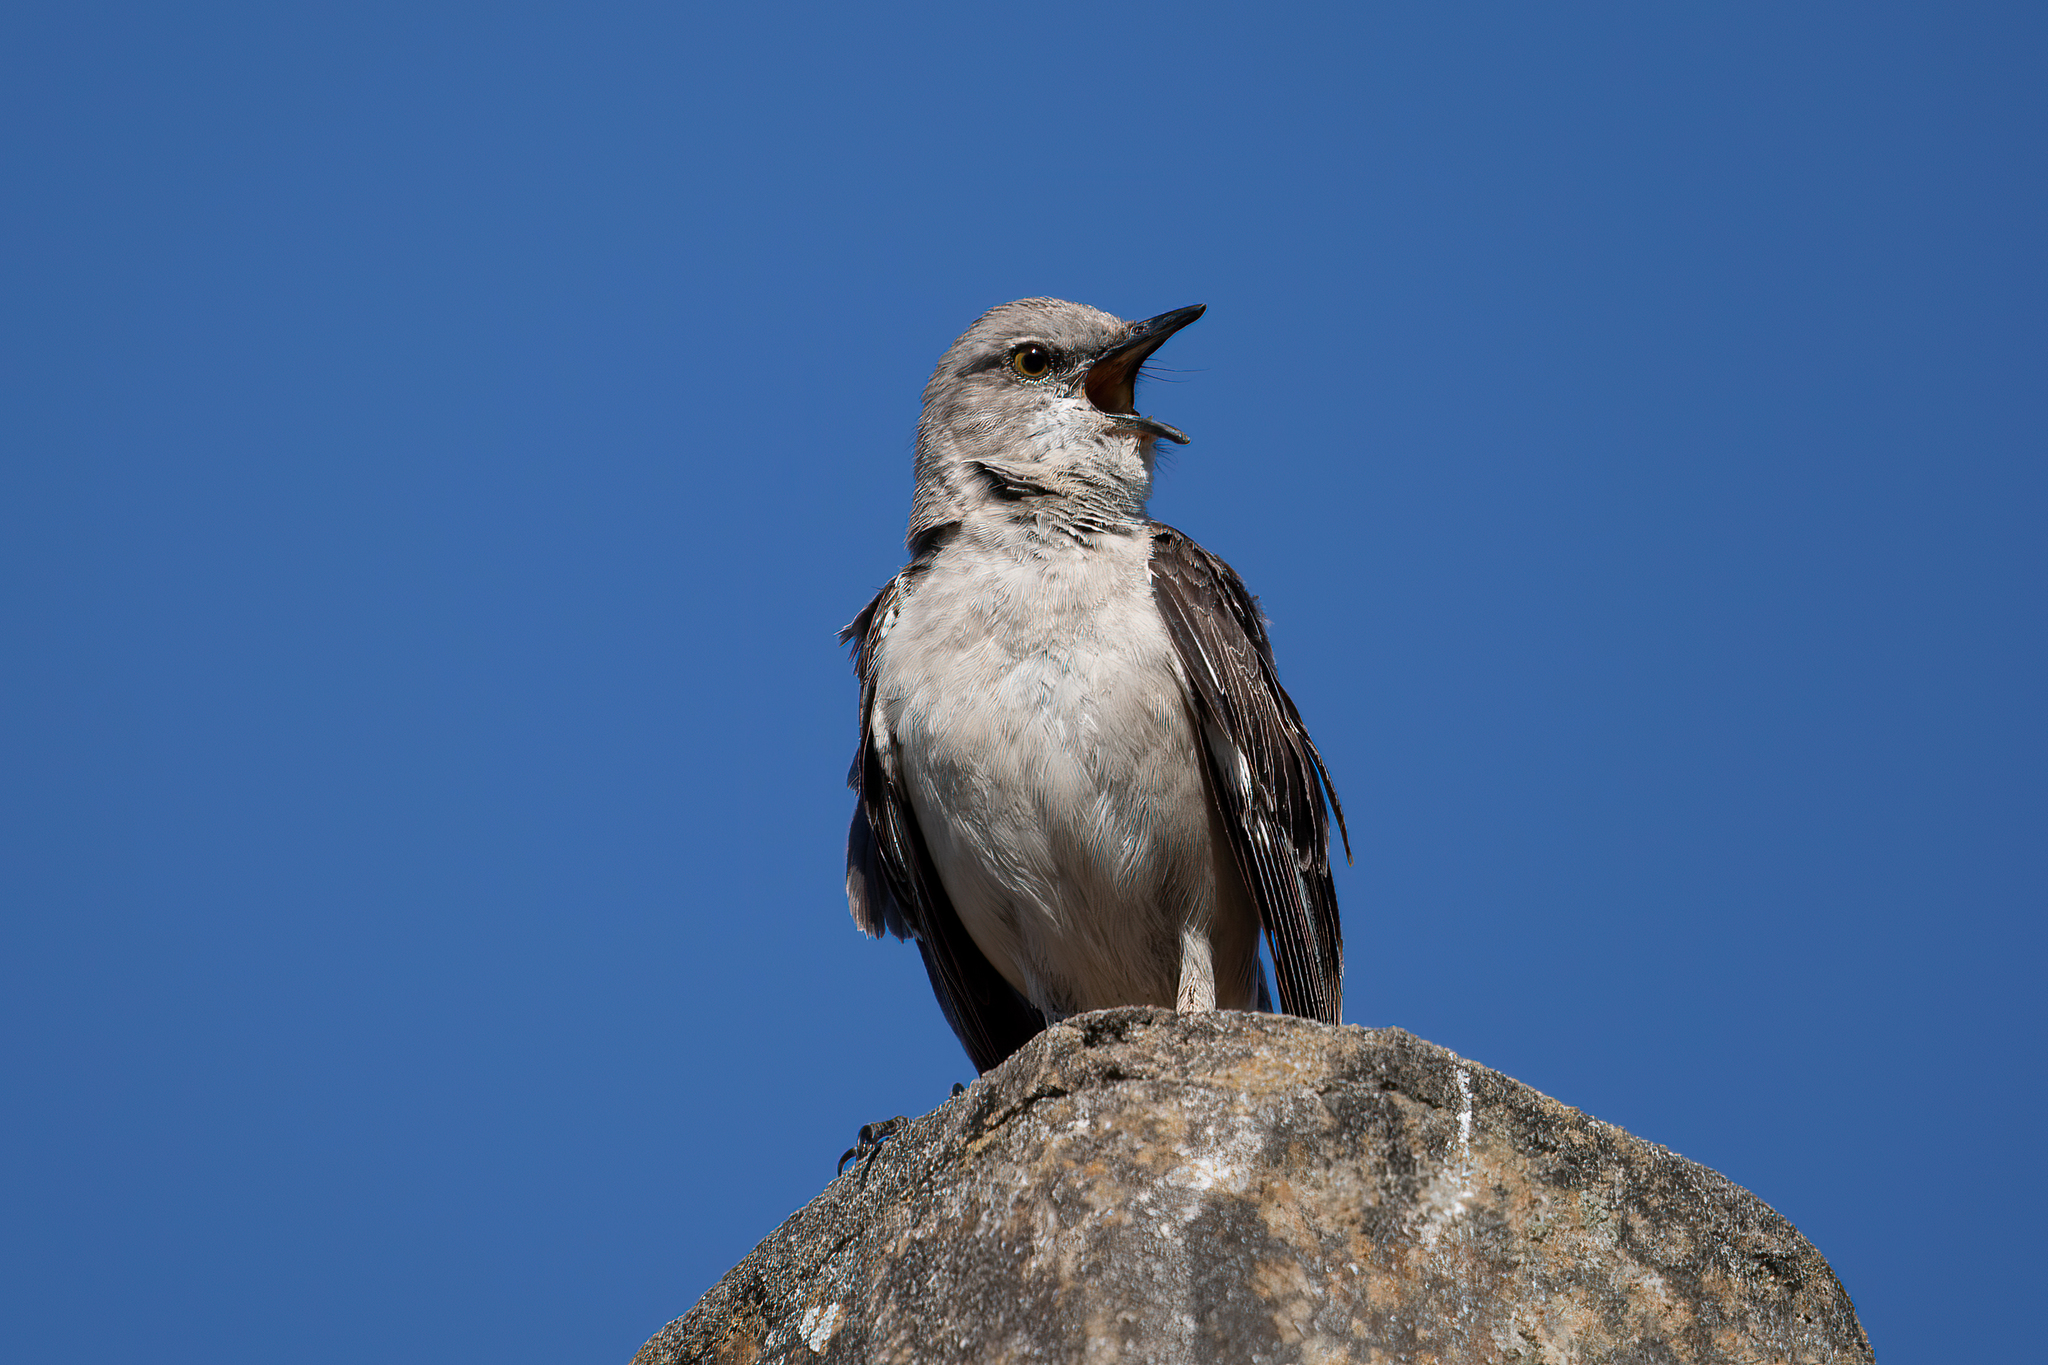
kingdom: Animalia
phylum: Chordata
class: Aves
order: Passeriformes
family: Mimidae
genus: Mimus
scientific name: Mimus polyglottos
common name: Northern mockingbird
